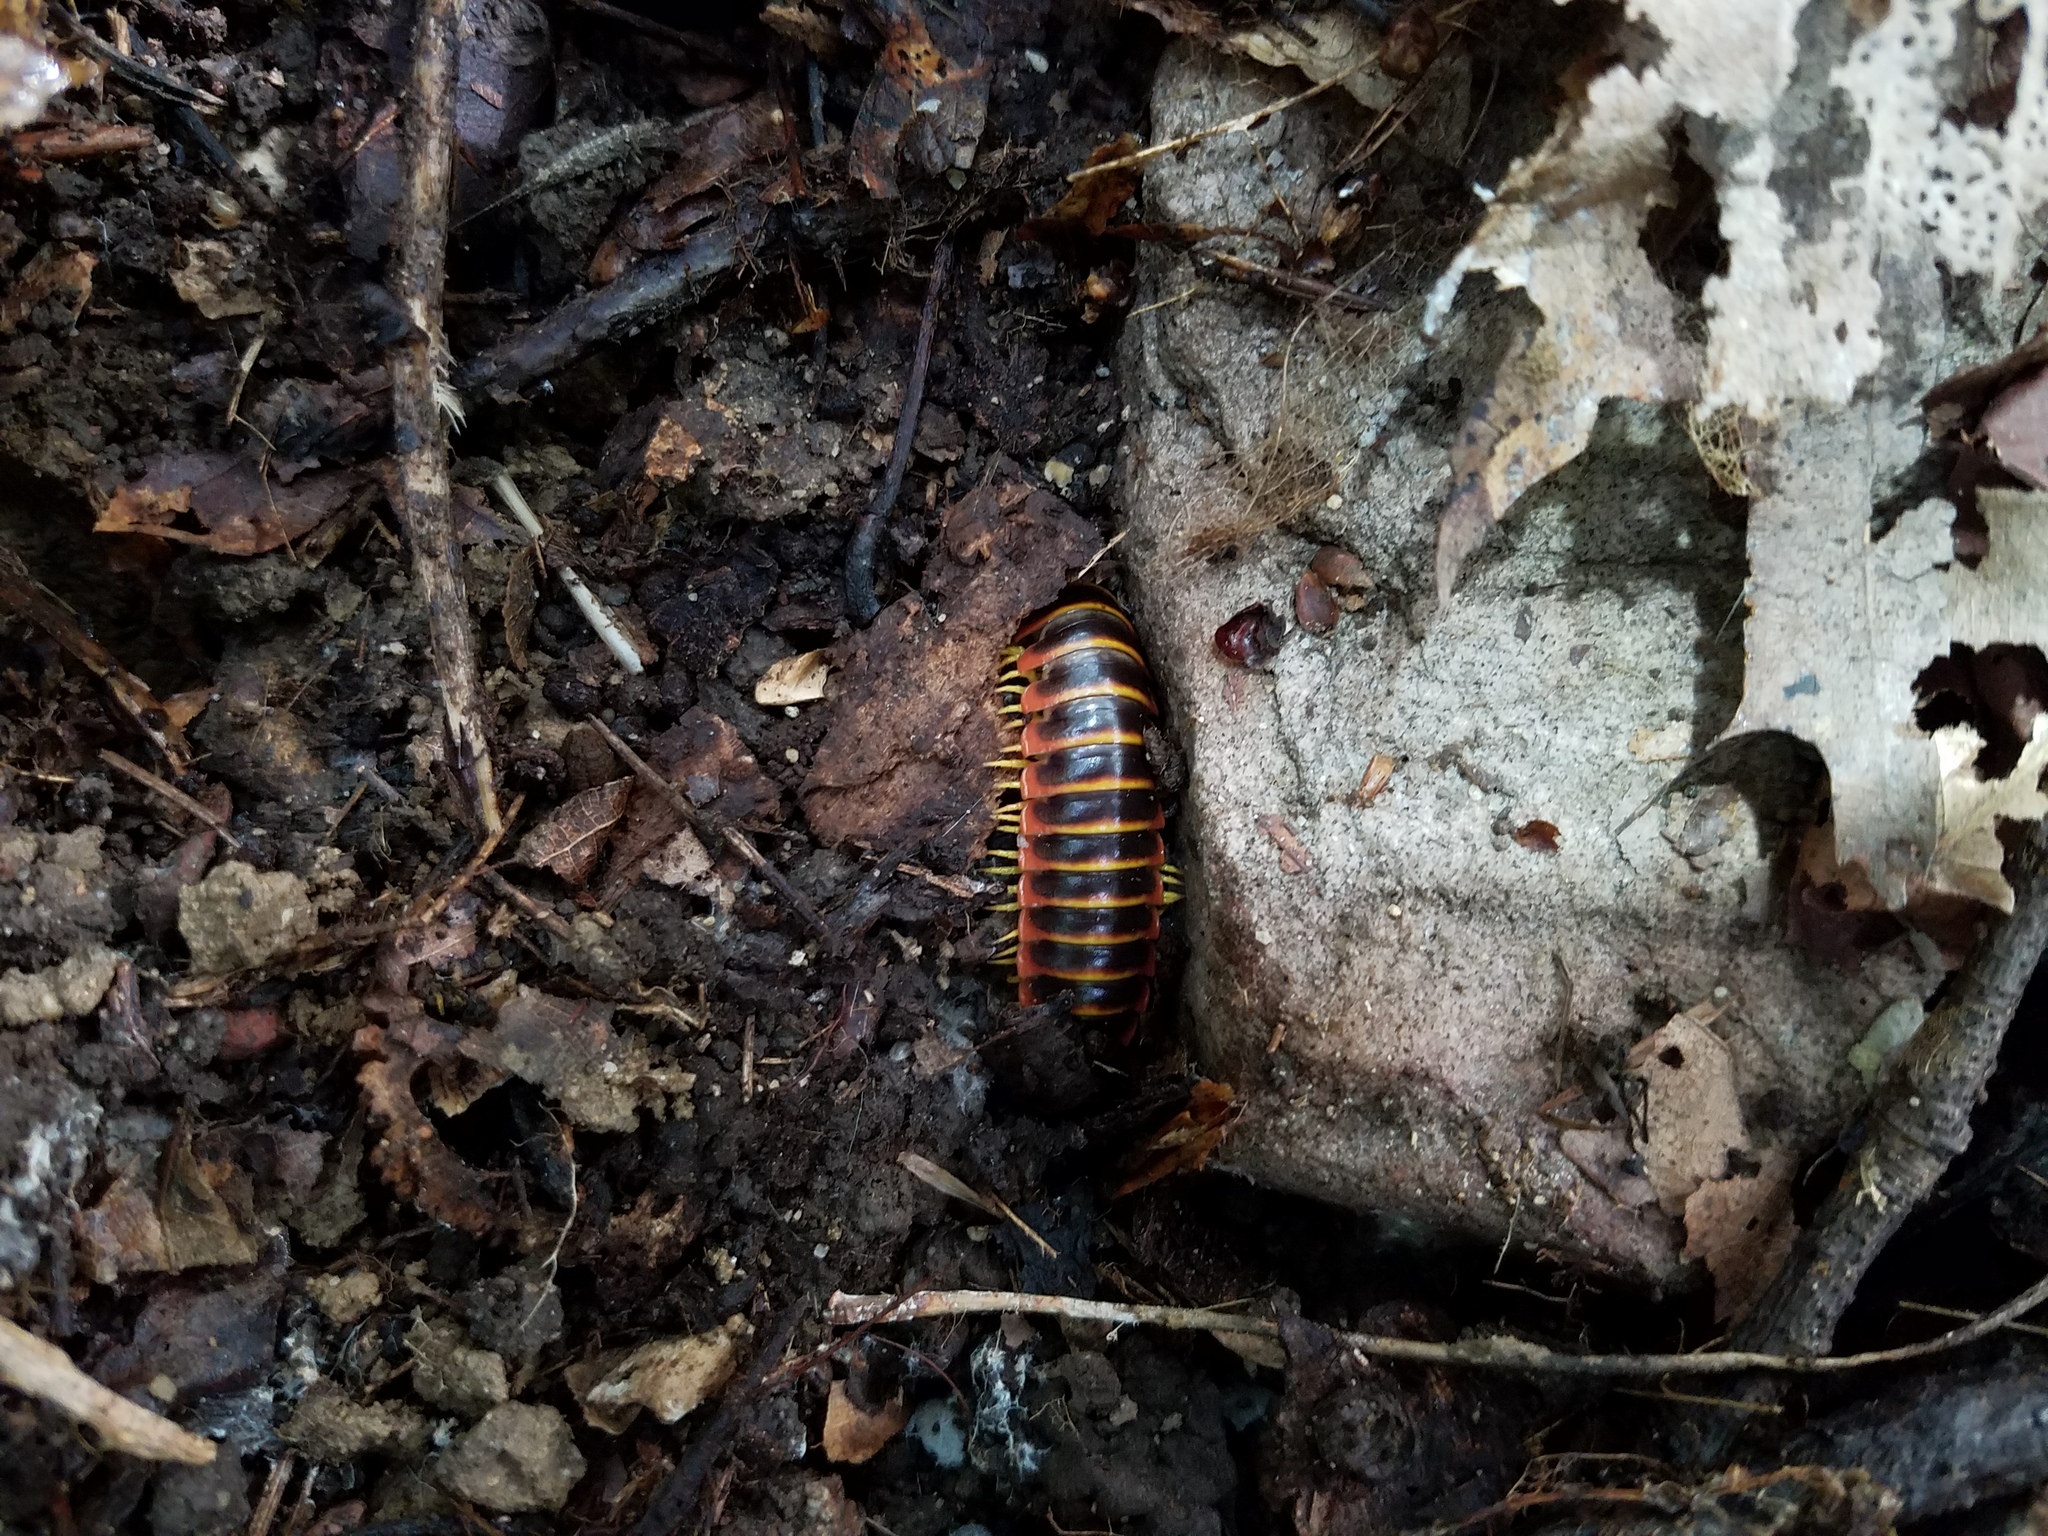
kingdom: Animalia
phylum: Arthropoda
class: Diplopoda
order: Polydesmida
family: Xystodesmidae
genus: Apheloria
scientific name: Apheloria virginiensis
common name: Black-and-gold flat millipede
